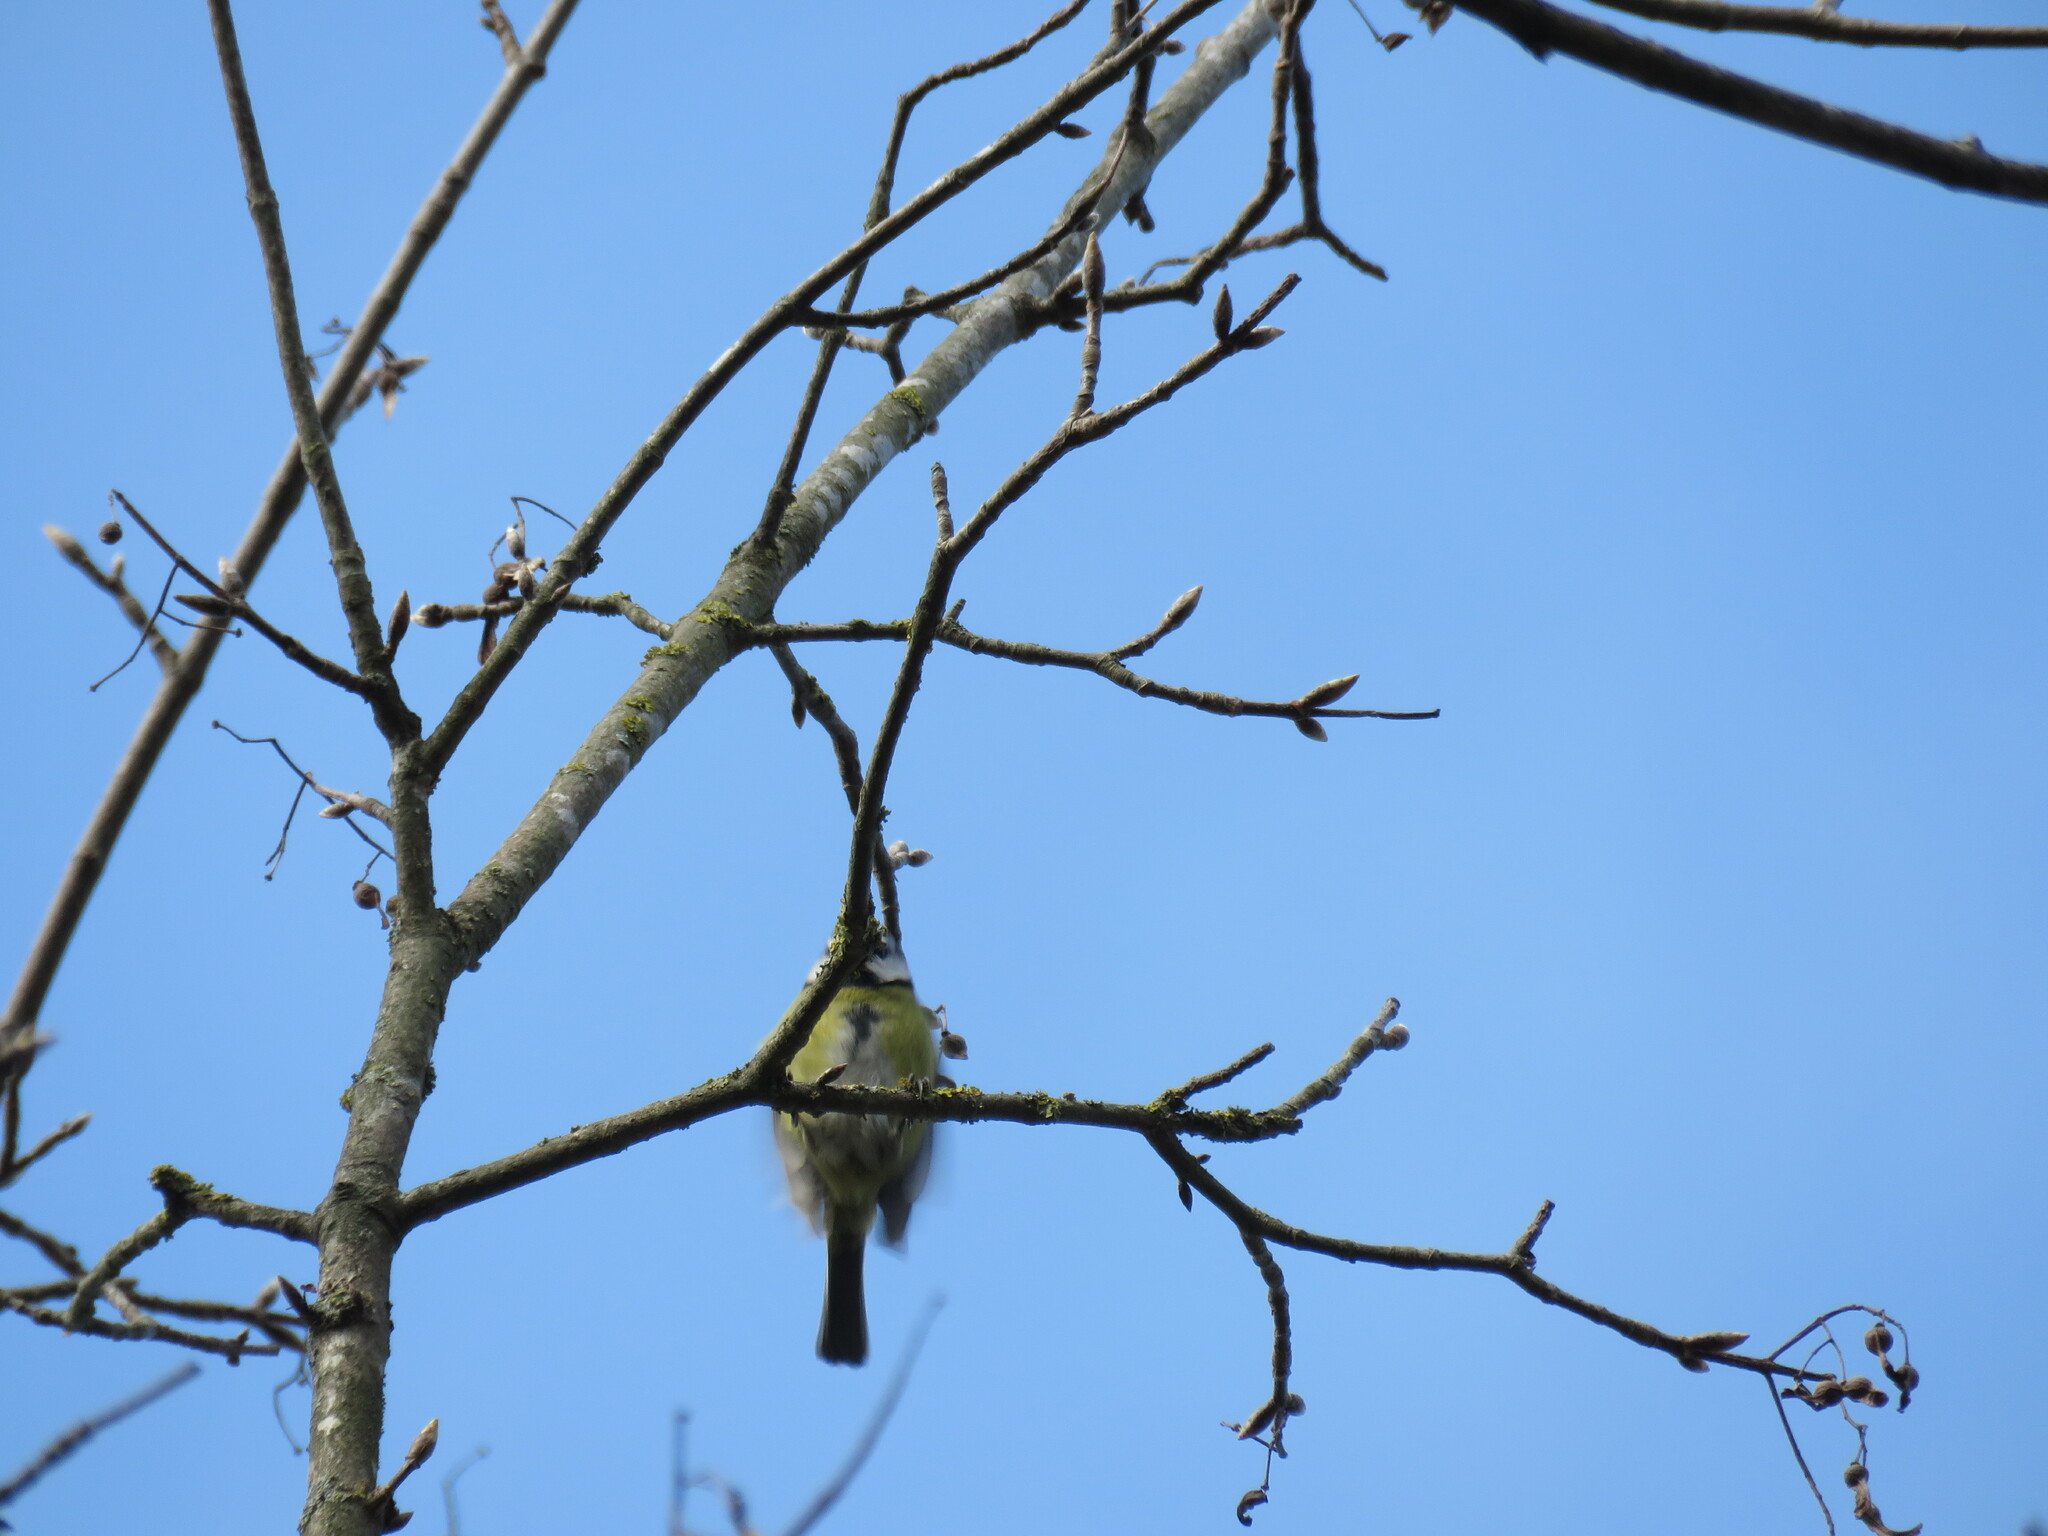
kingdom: Animalia
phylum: Chordata
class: Aves
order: Passeriformes
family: Paridae
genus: Cyanistes
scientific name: Cyanistes caeruleus
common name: Eurasian blue tit
